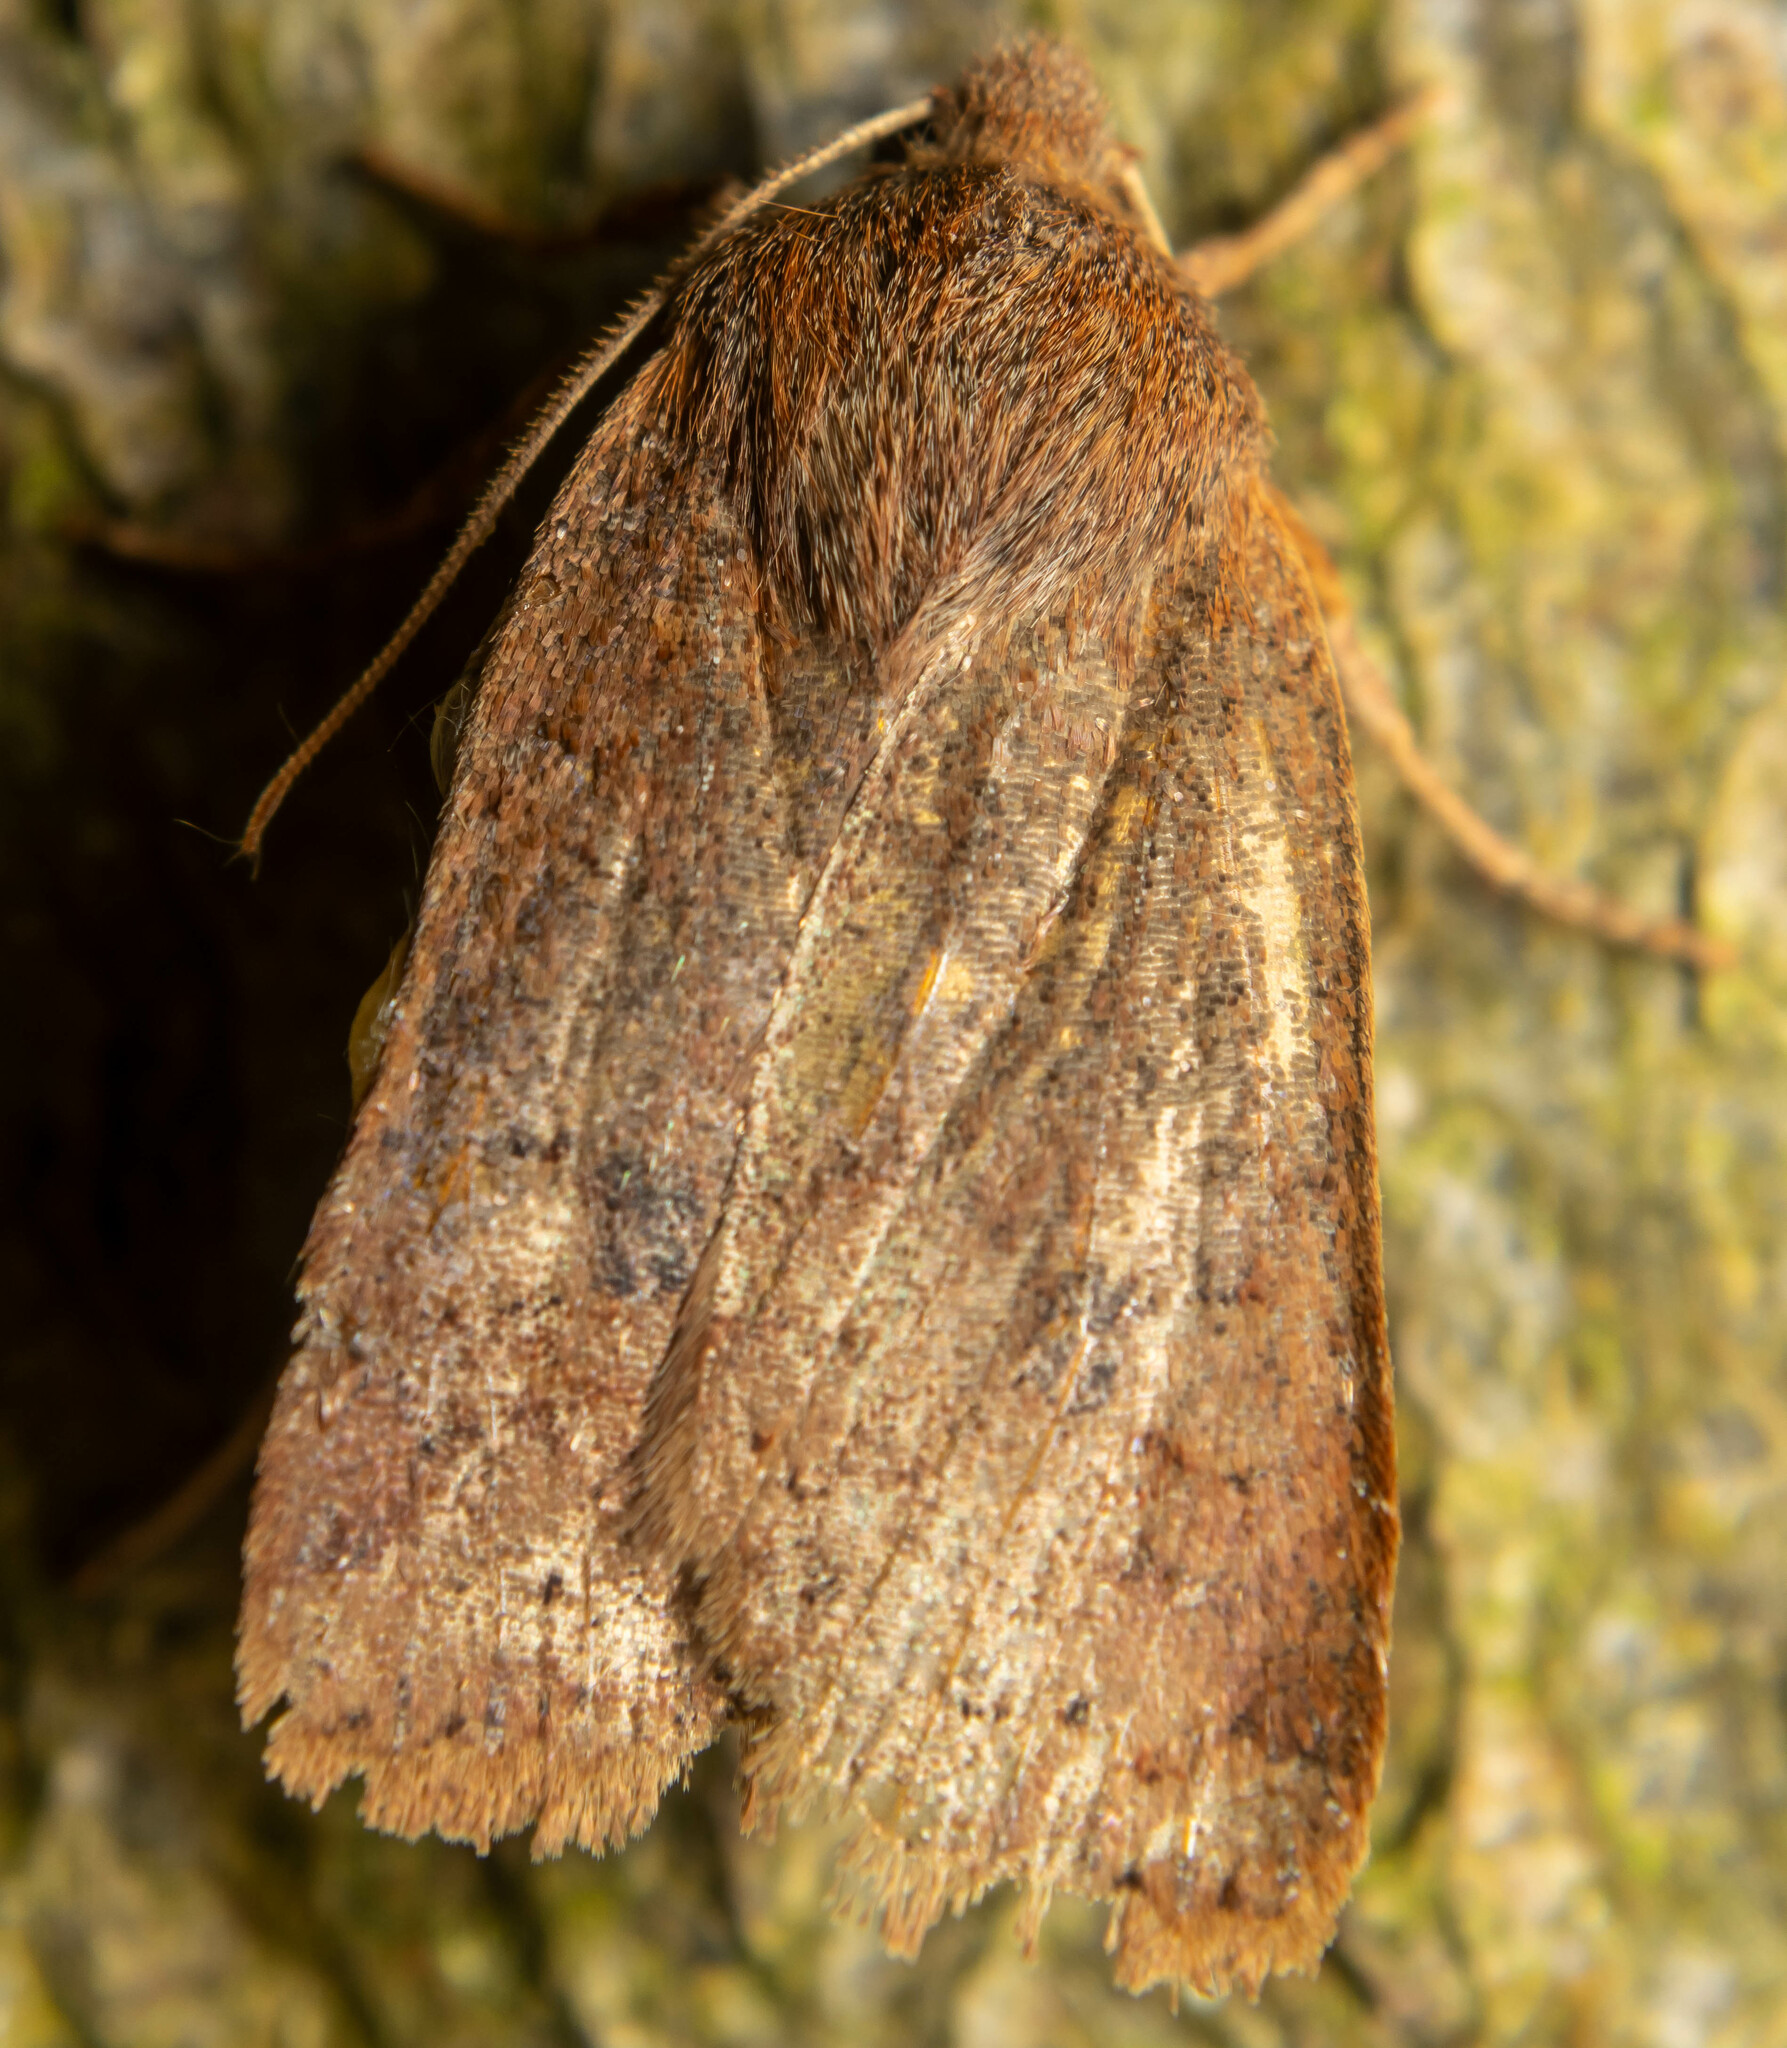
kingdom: Animalia
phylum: Arthropoda
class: Insecta
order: Lepidoptera
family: Noctuidae
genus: Conistra
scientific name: Conistra vaccinii
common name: Chestnut
